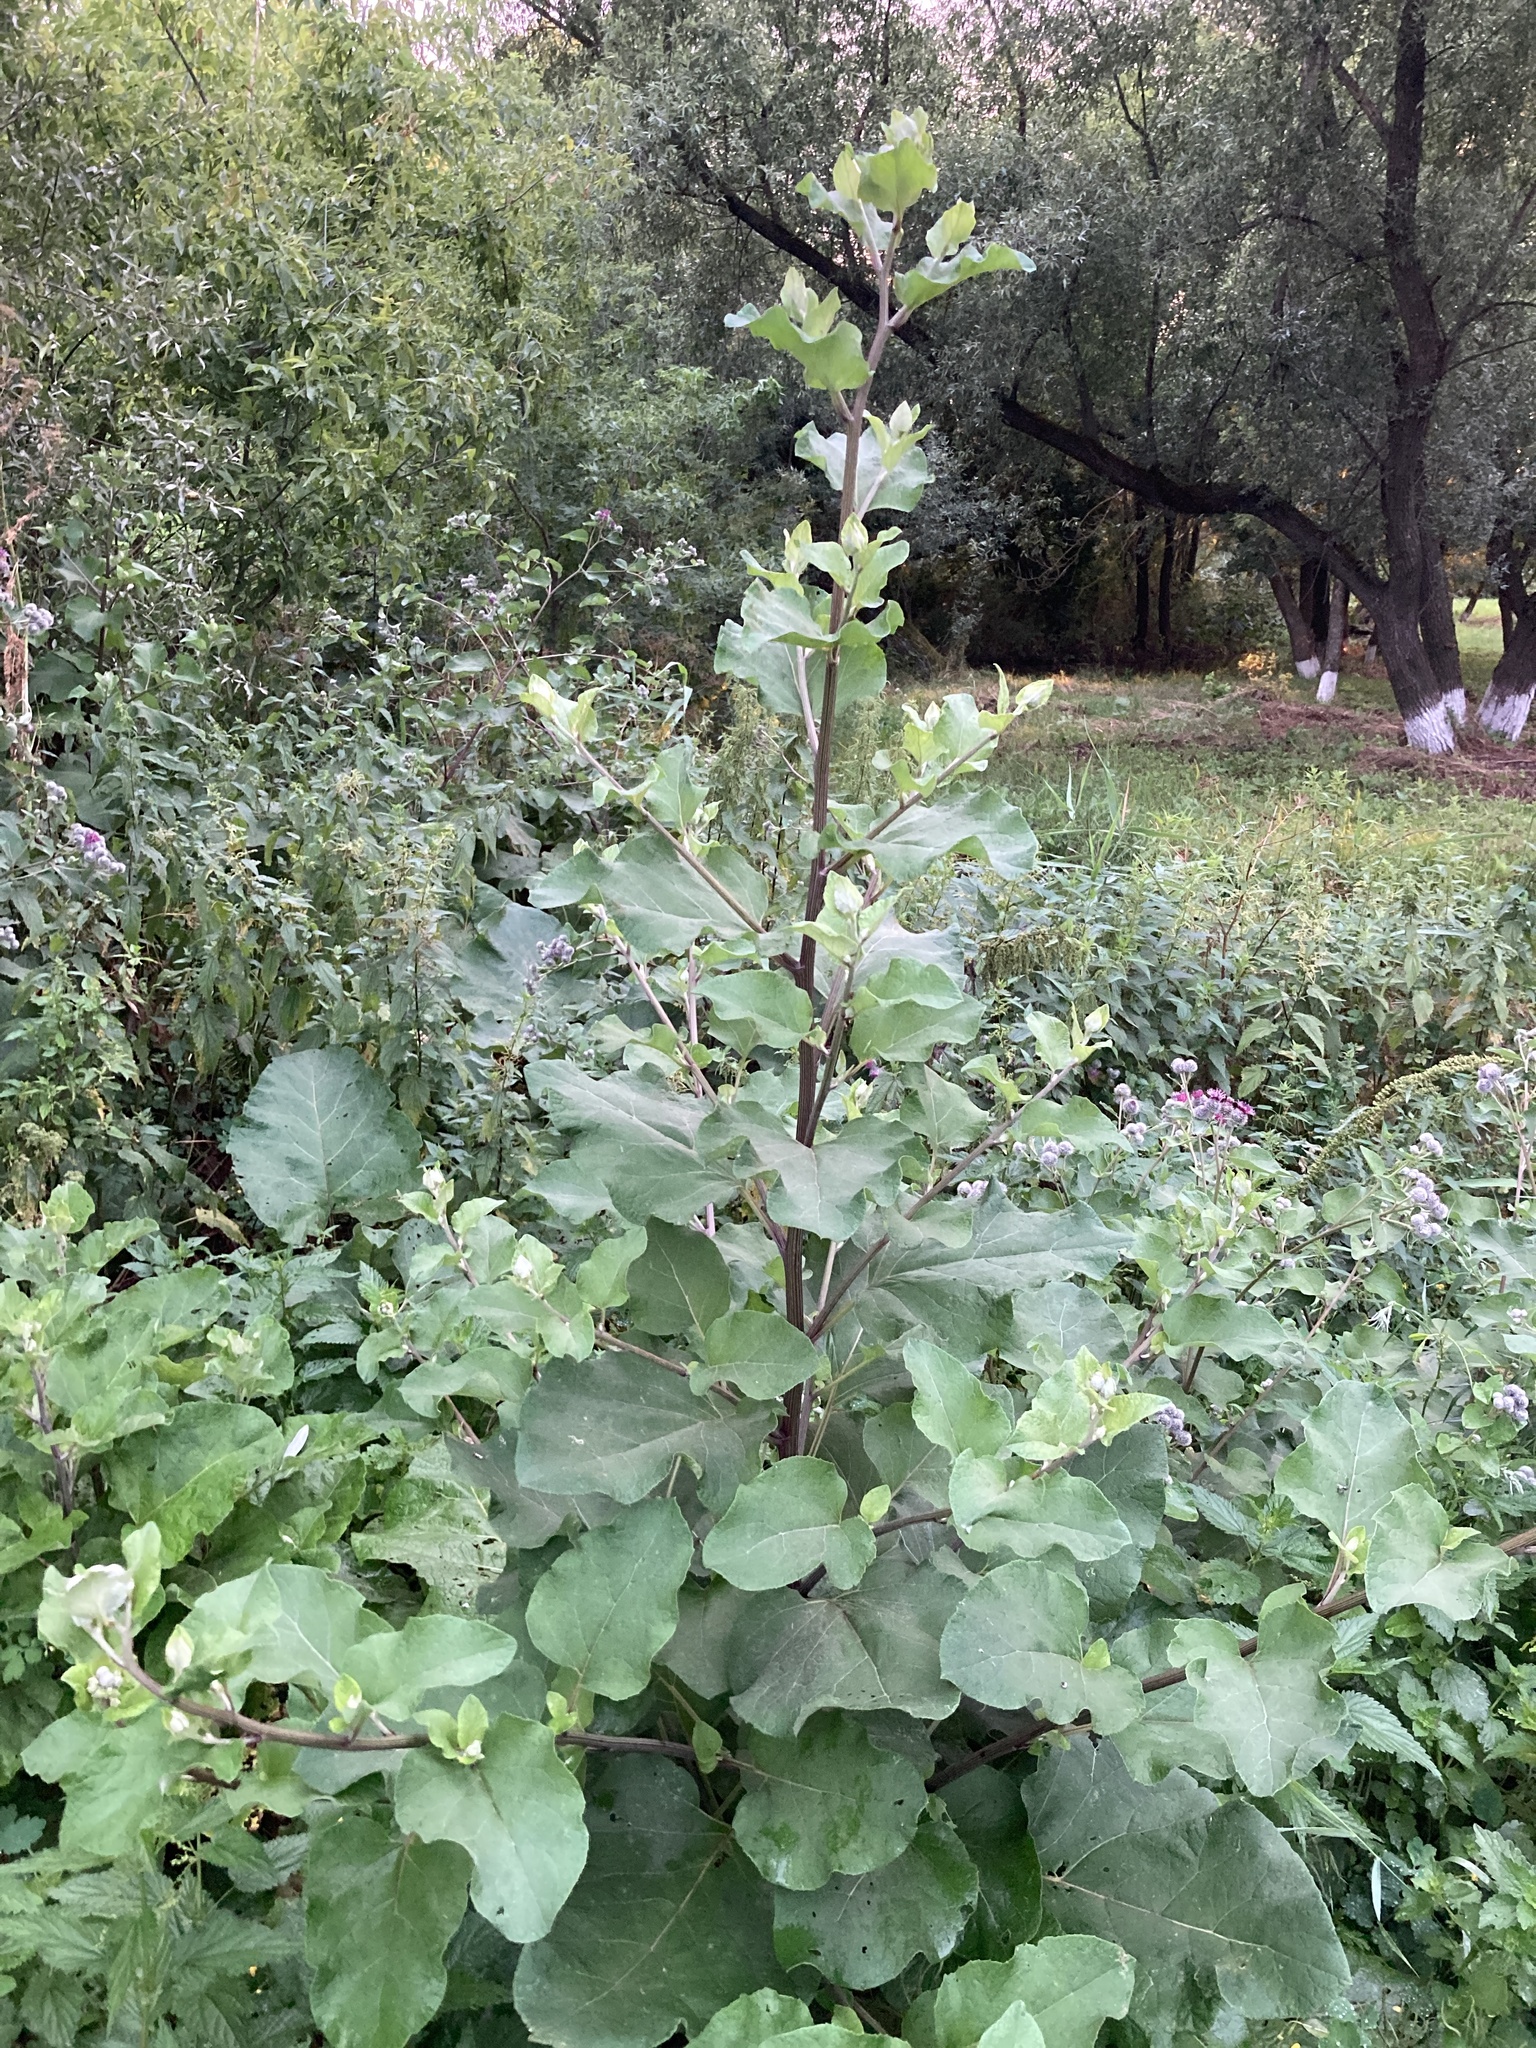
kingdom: Plantae
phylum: Tracheophyta
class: Magnoliopsida
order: Asterales
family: Asteraceae
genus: Arctium
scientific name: Arctium tomentosum
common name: Woolly burdock
